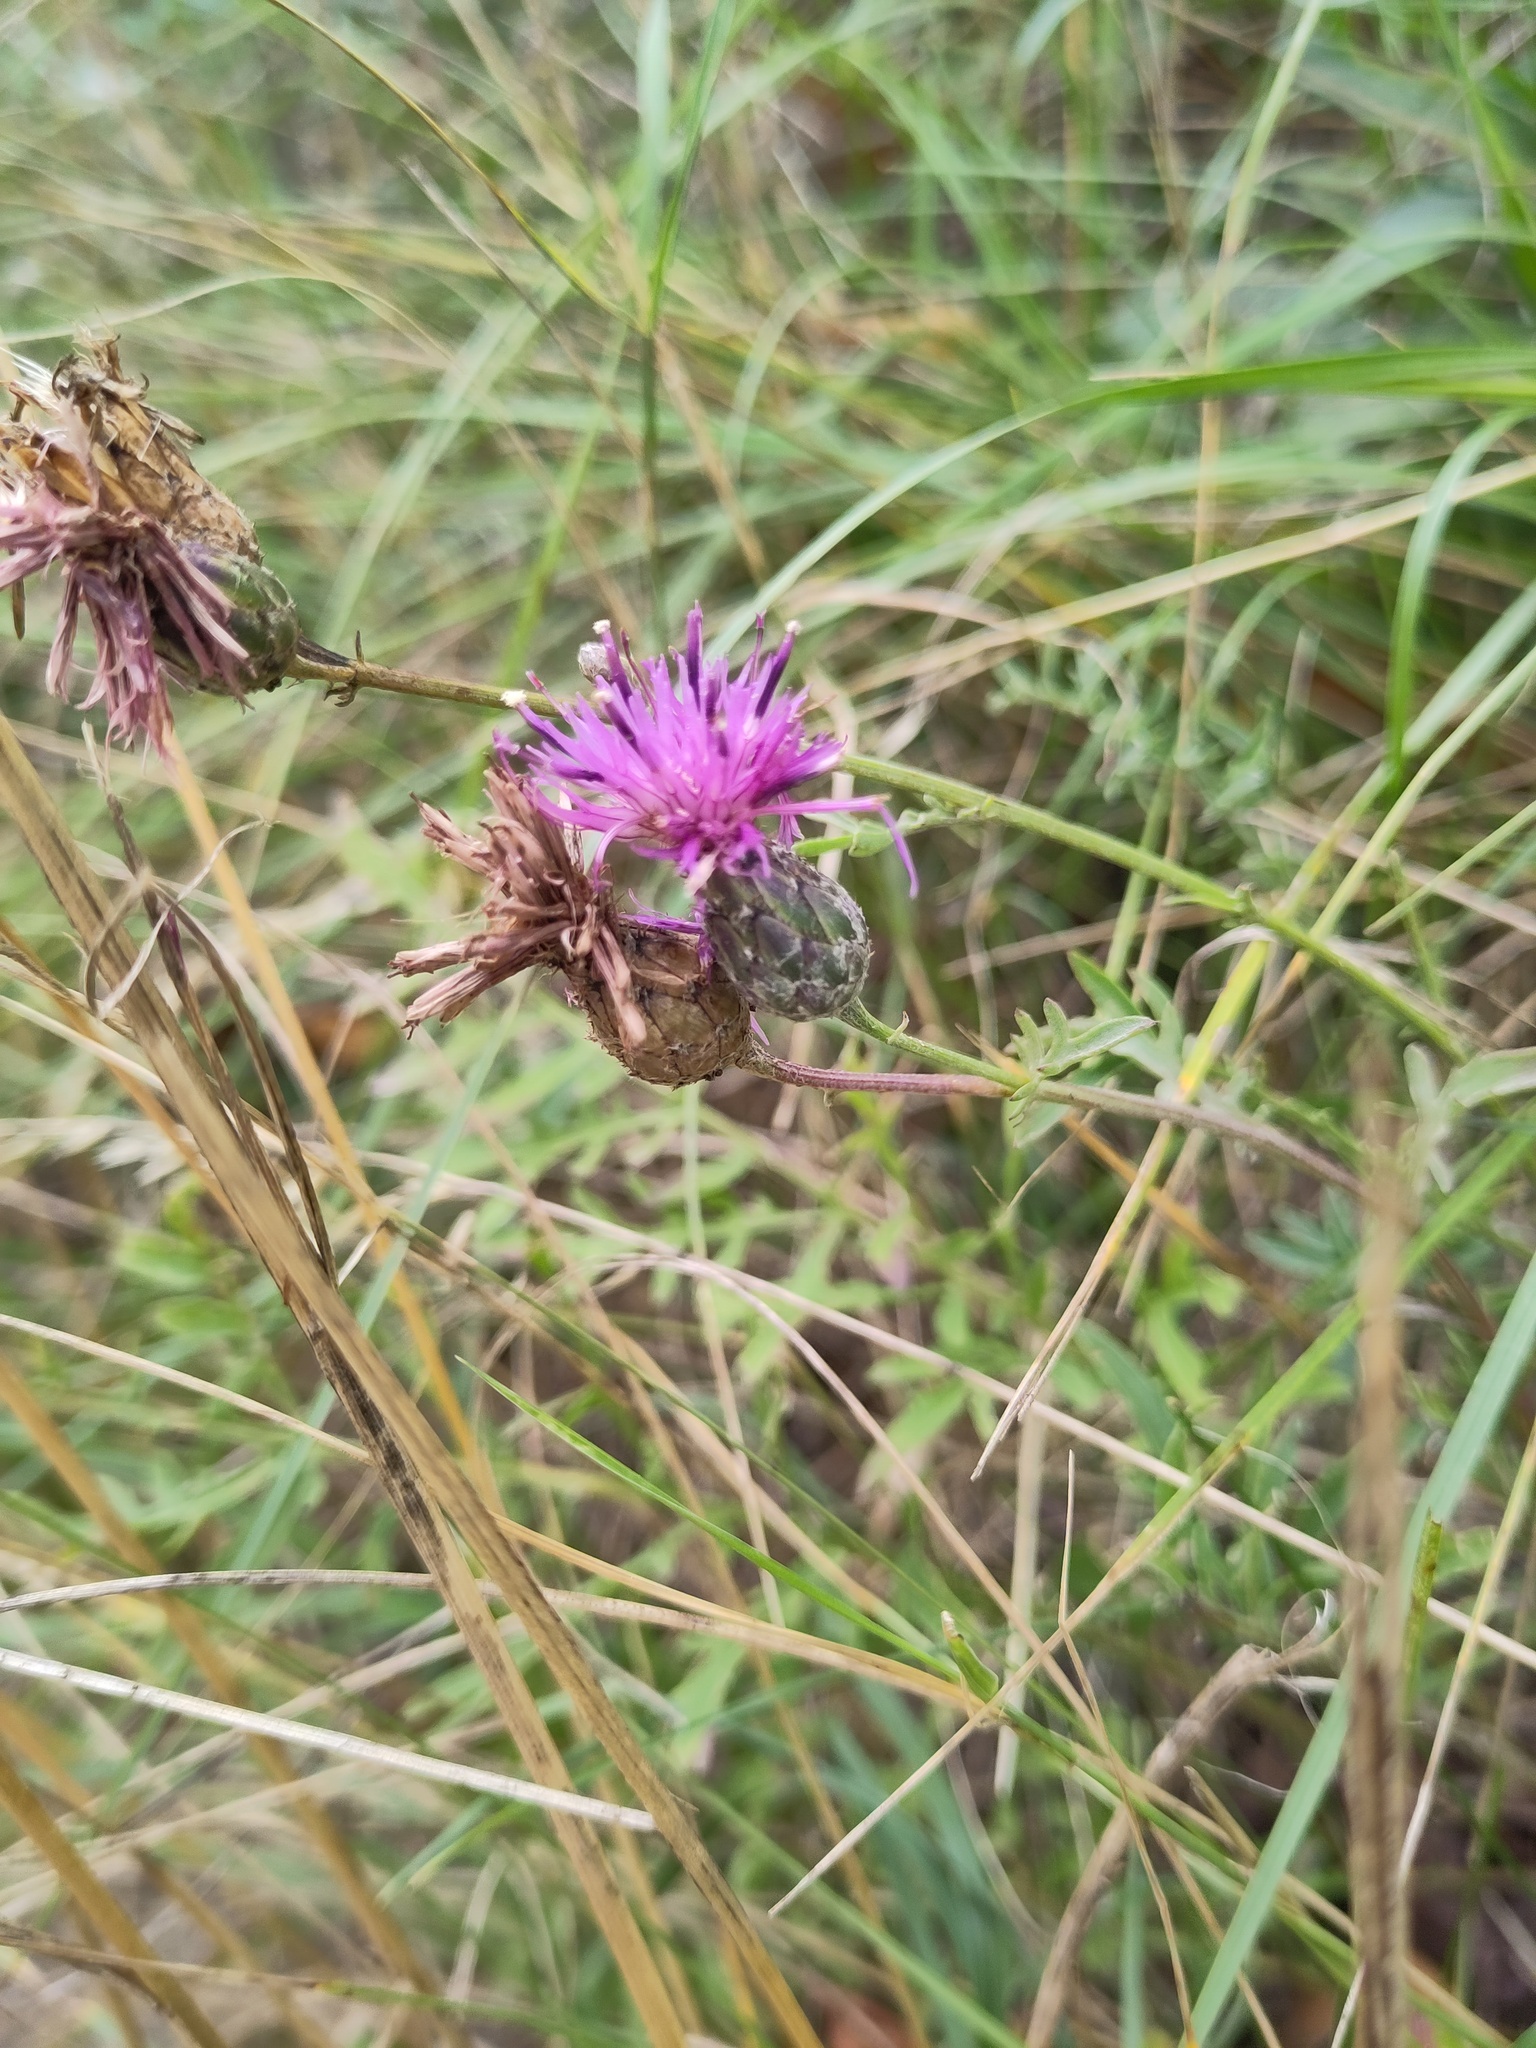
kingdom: Plantae
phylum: Tracheophyta
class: Magnoliopsida
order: Asterales
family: Asteraceae
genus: Centaurea
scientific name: Centaurea scabiosa
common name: Greater knapweed
